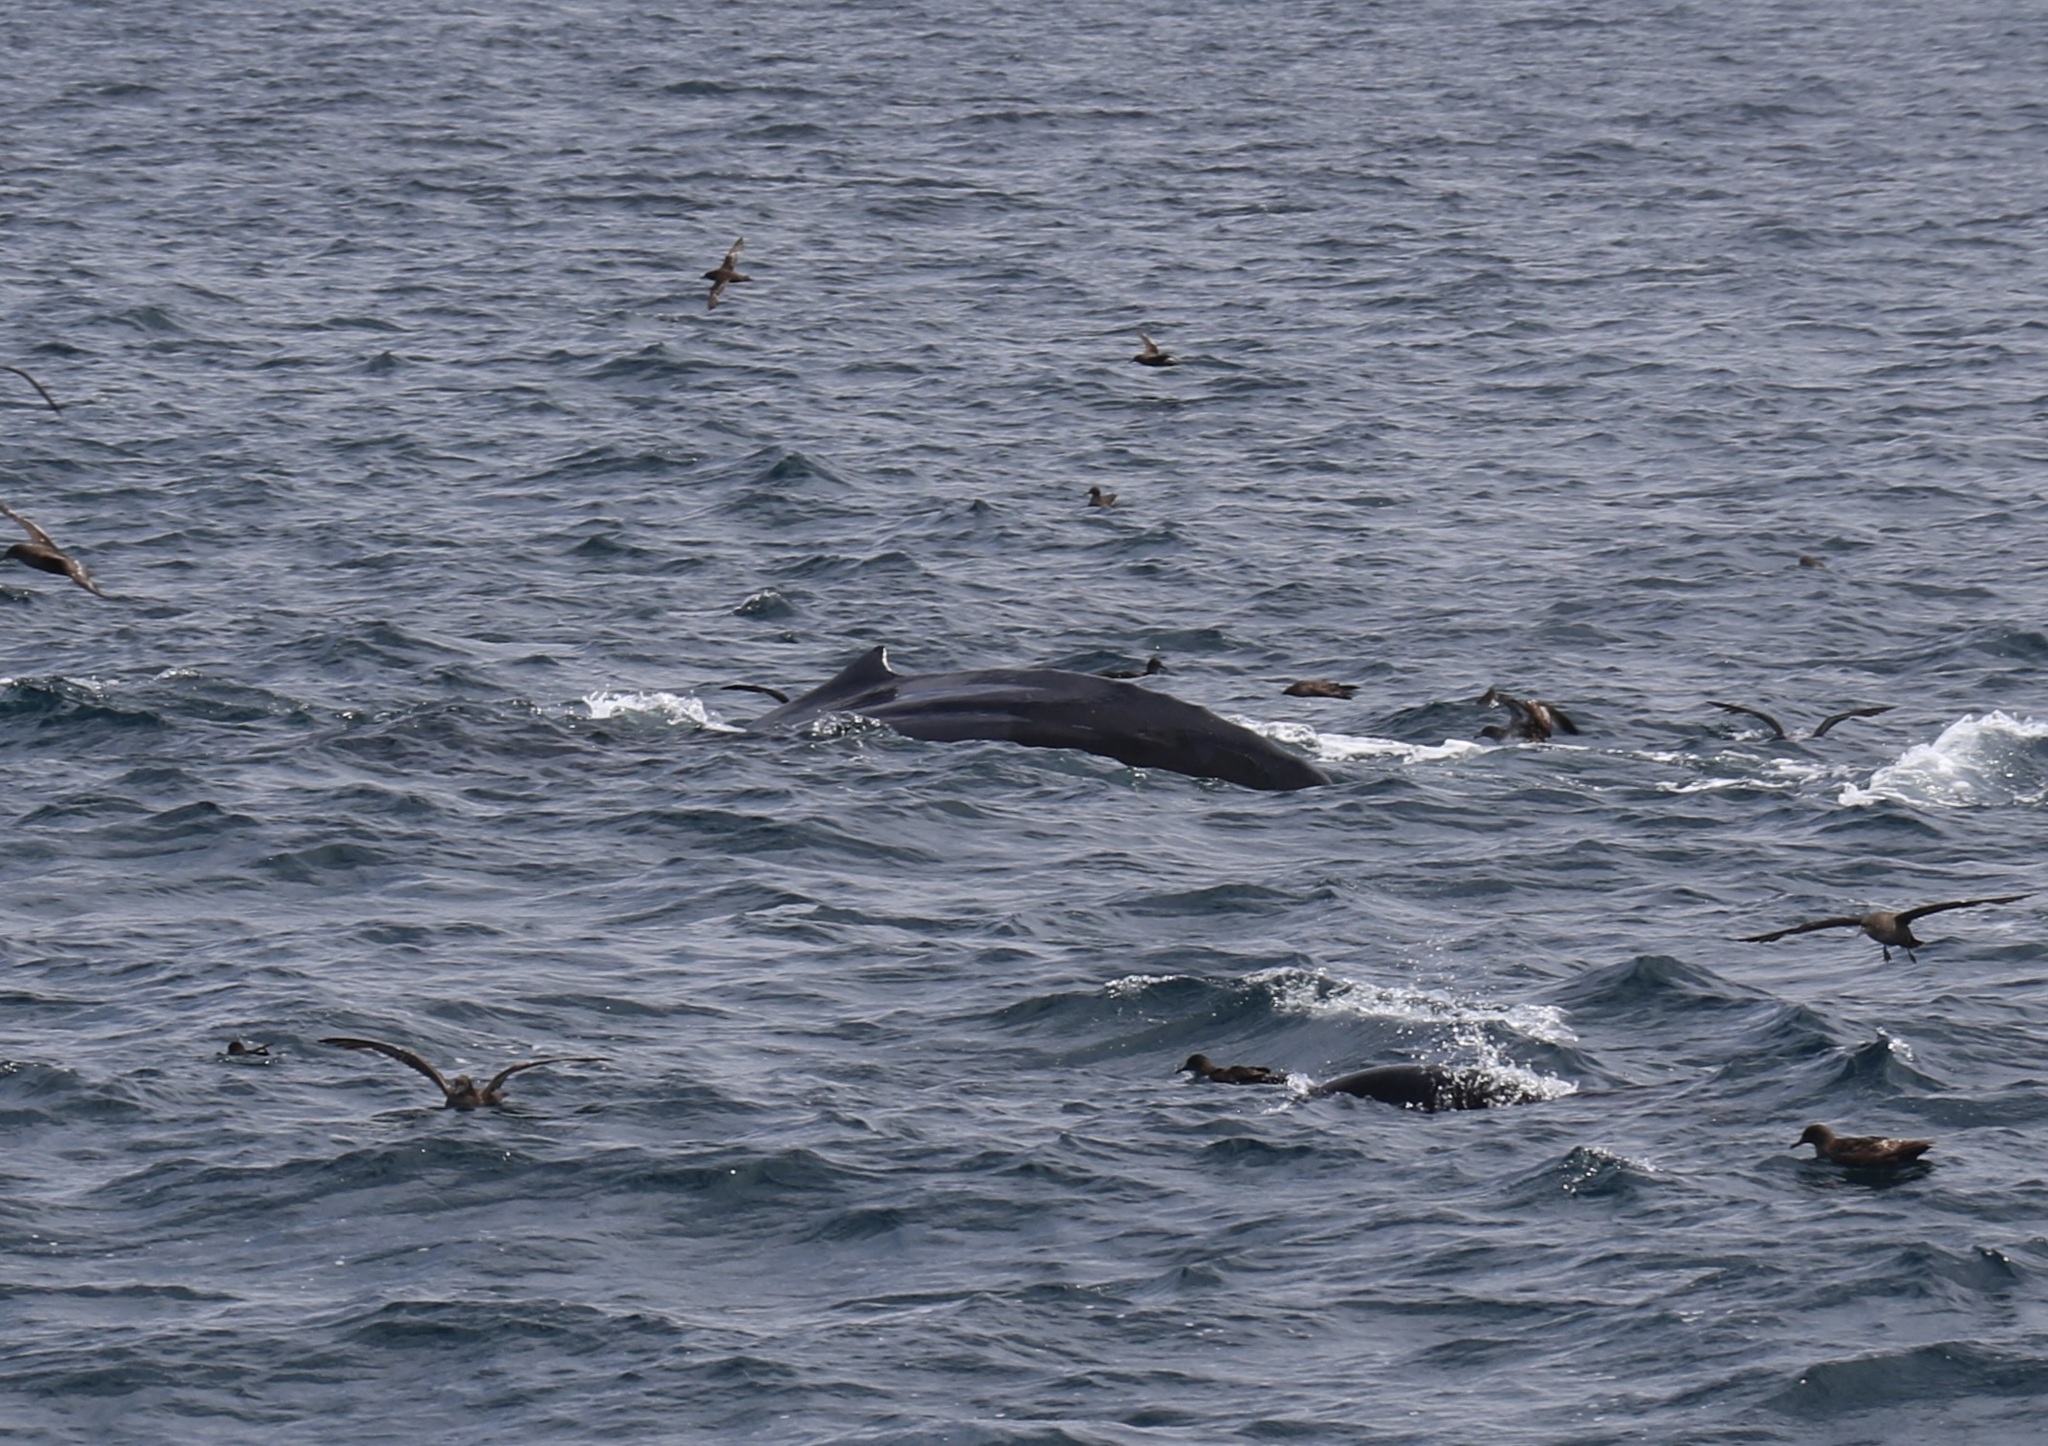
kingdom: Animalia
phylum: Chordata
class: Mammalia
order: Cetacea
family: Balaenopteridae
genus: Megaptera
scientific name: Megaptera novaeangliae
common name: Humpback whale
